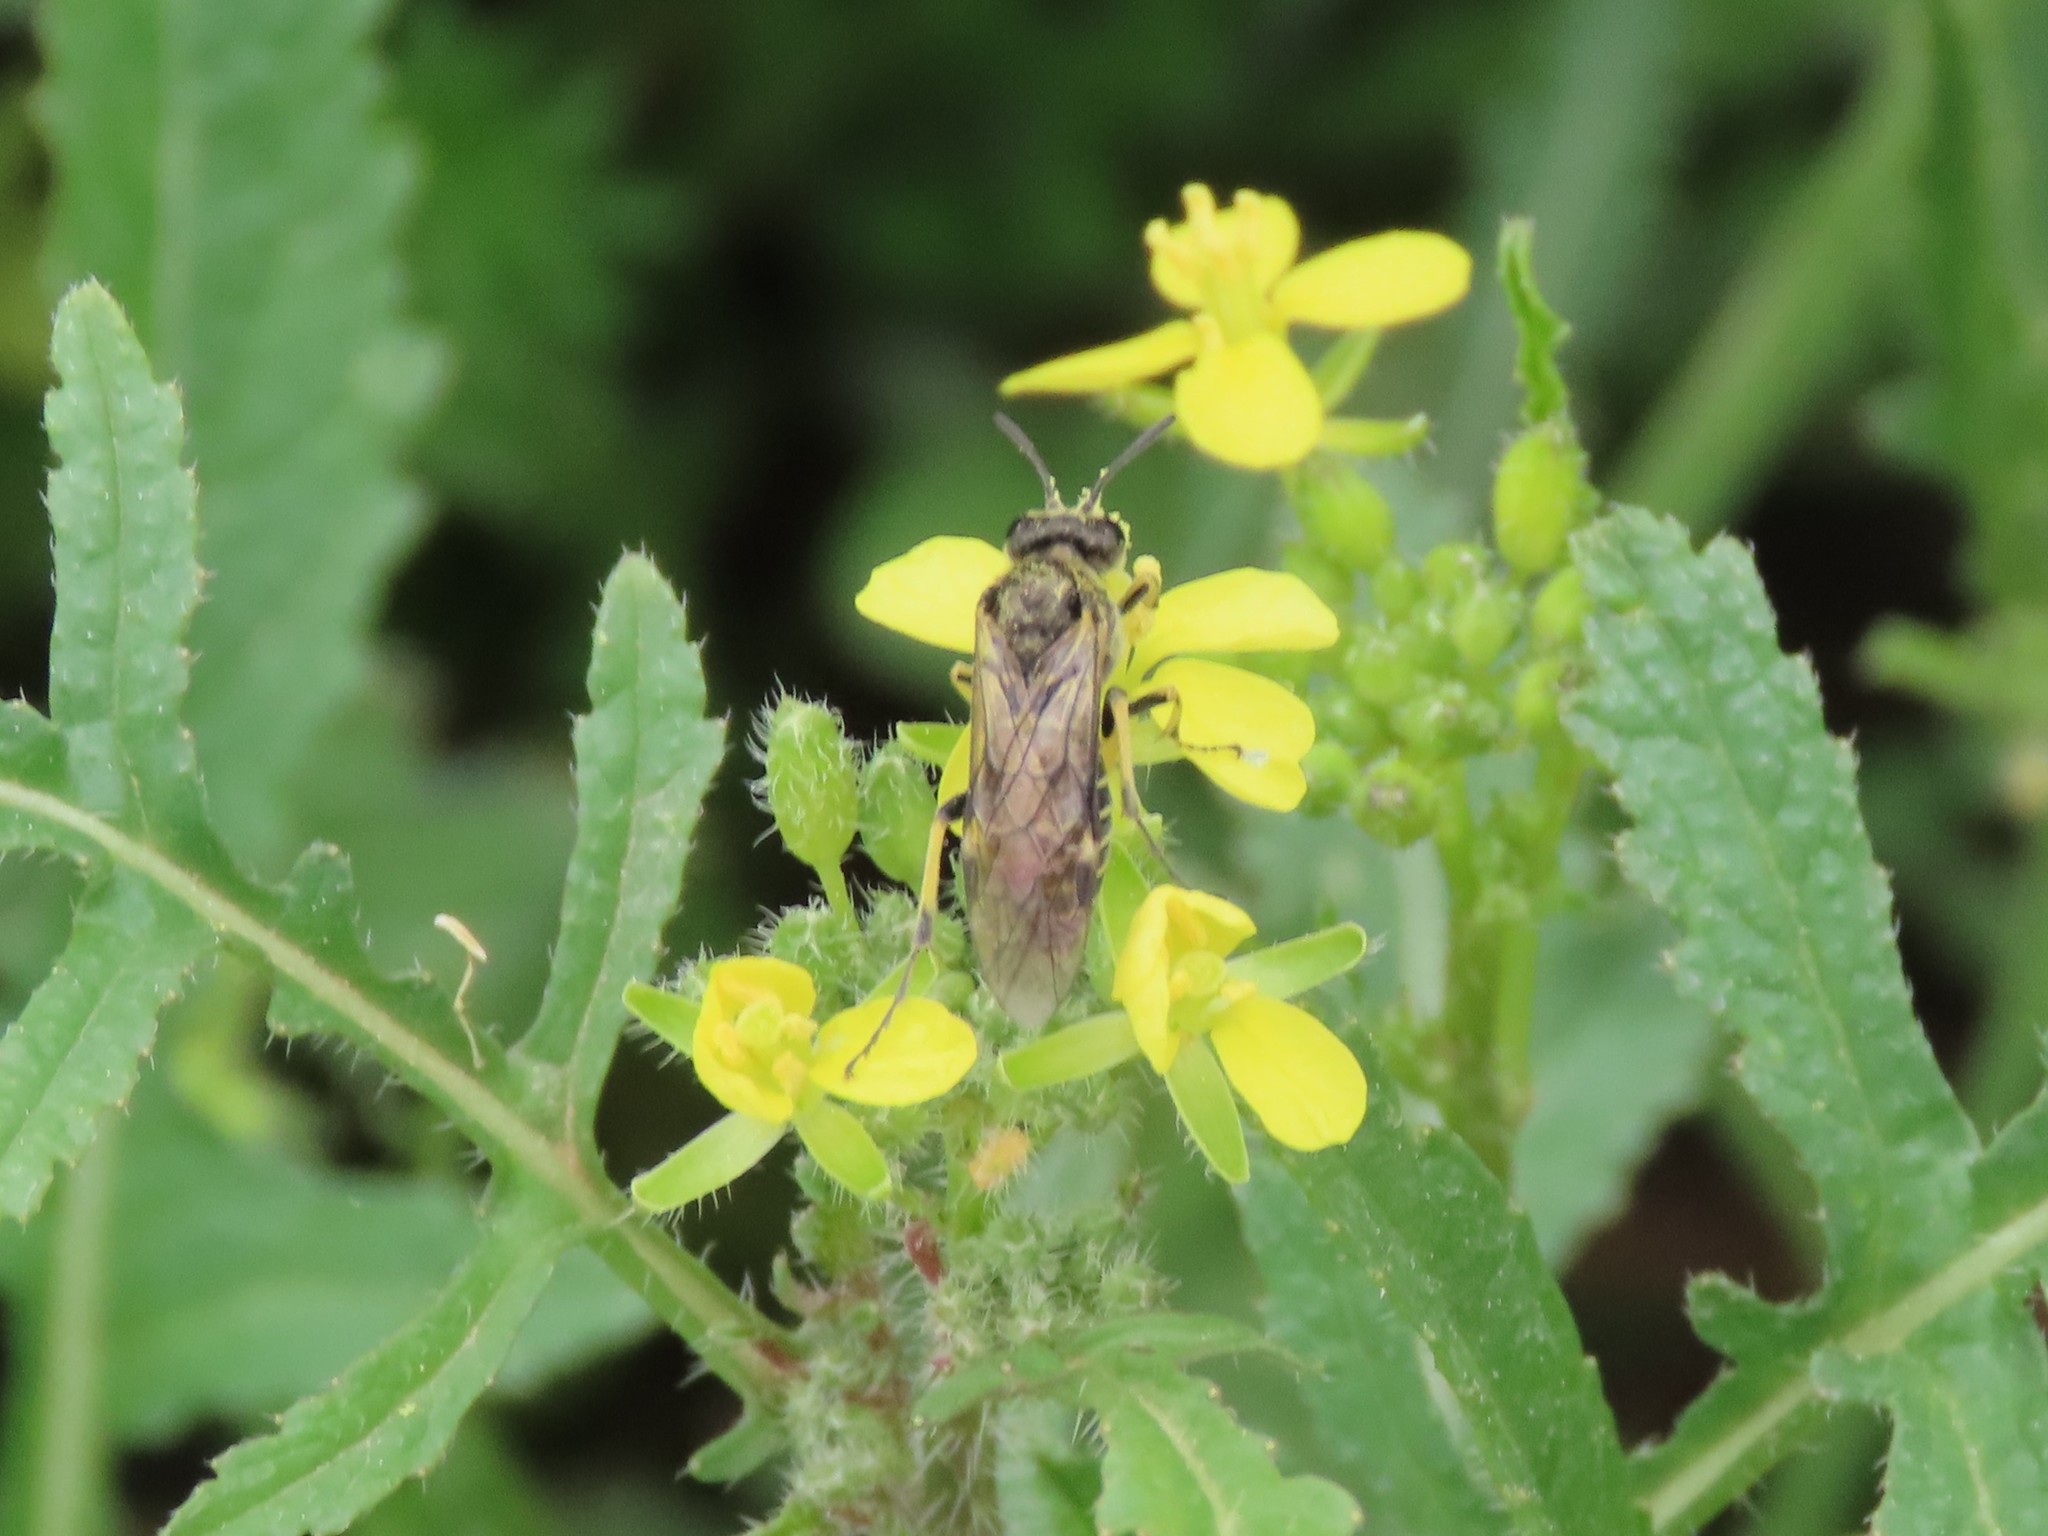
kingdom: Animalia
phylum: Arthropoda
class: Insecta
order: Hymenoptera
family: Tenthredinidae
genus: Tenthredo
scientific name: Tenthredo limbalis
